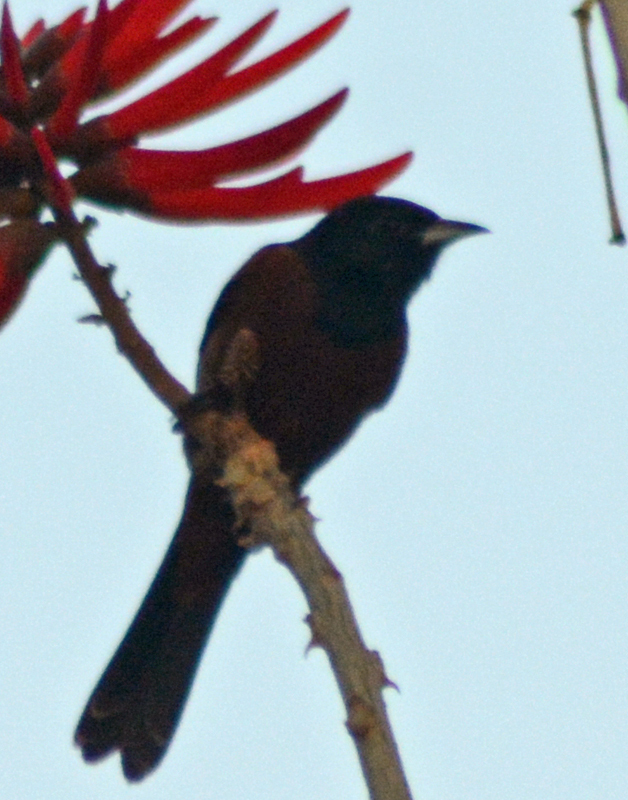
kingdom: Animalia
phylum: Chordata
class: Aves
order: Passeriformes
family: Icteridae
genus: Icterus
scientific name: Icterus spurius
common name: Orchard oriole
